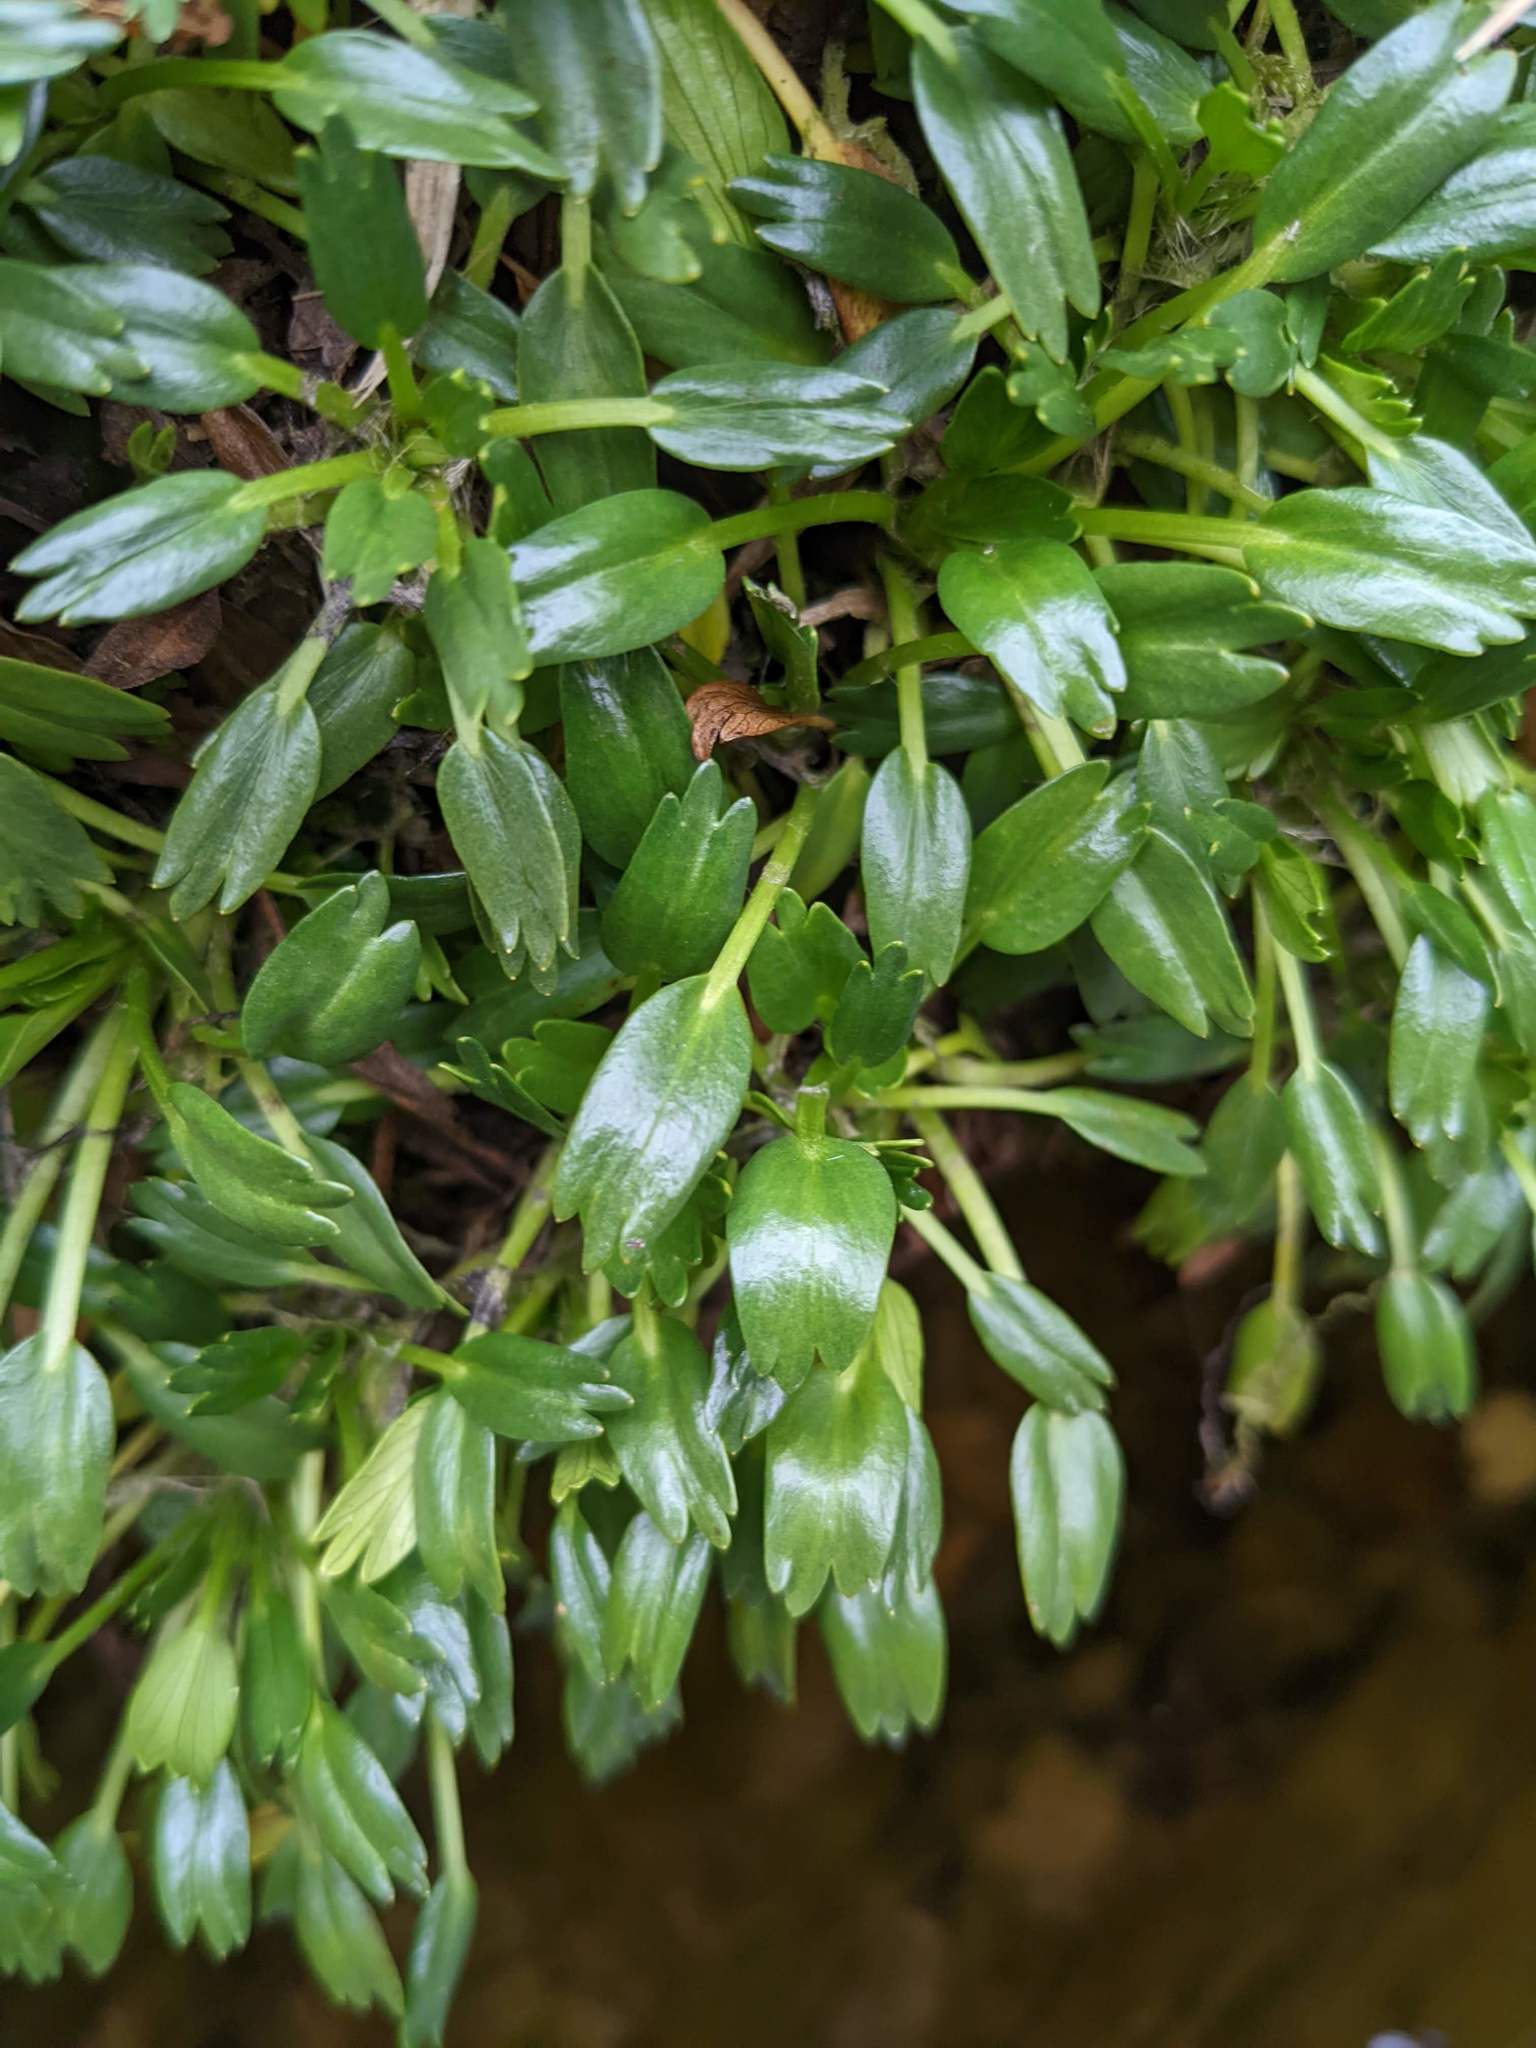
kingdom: Plantae
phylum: Tracheophyta
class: Magnoliopsida
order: Apiales
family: Apiaceae
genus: Azorella
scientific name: Azorella aretioides
